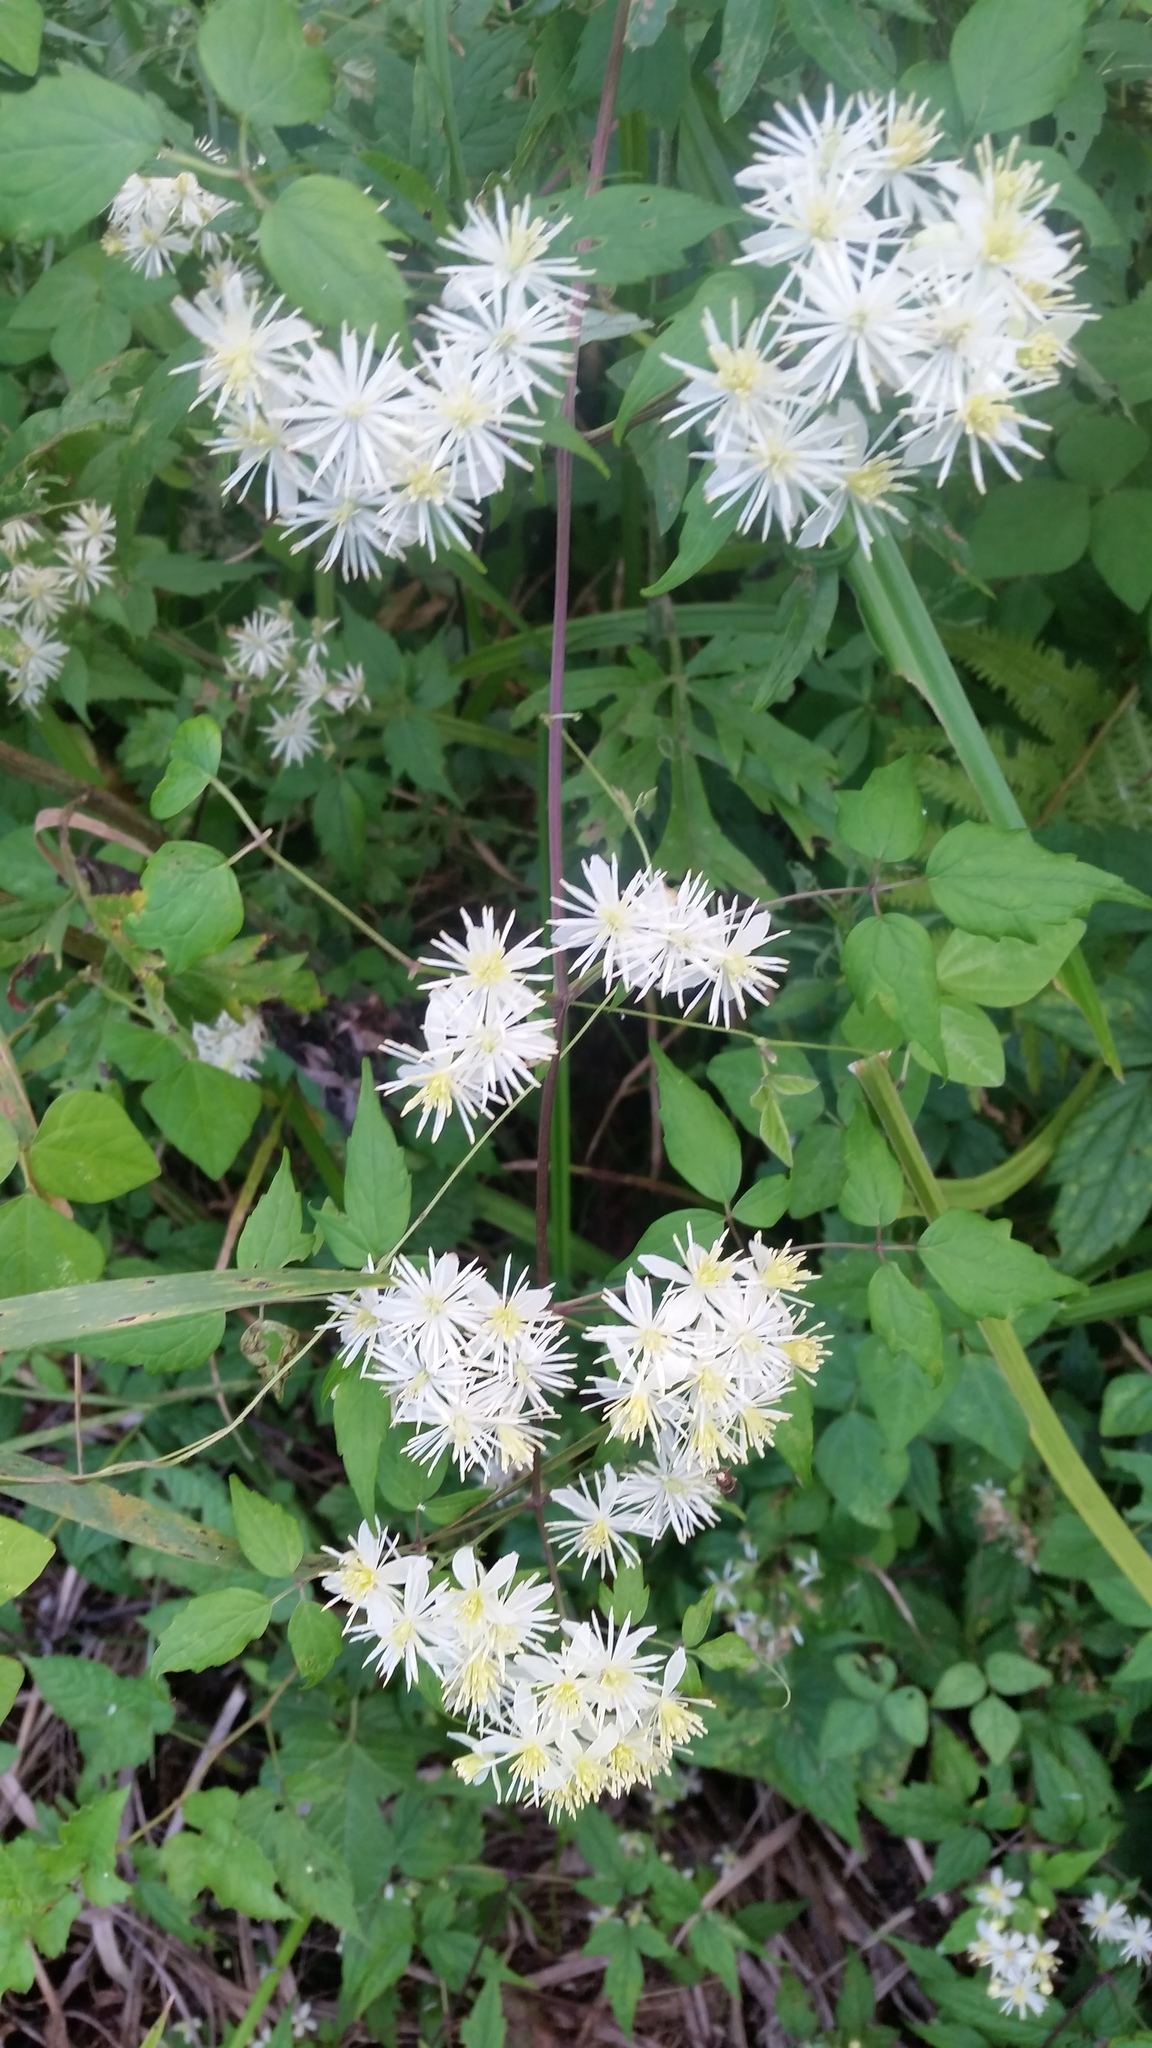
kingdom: Plantae
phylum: Tracheophyta
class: Magnoliopsida
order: Ranunculales
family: Ranunculaceae
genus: Clematis
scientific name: Clematis brevicaudata
